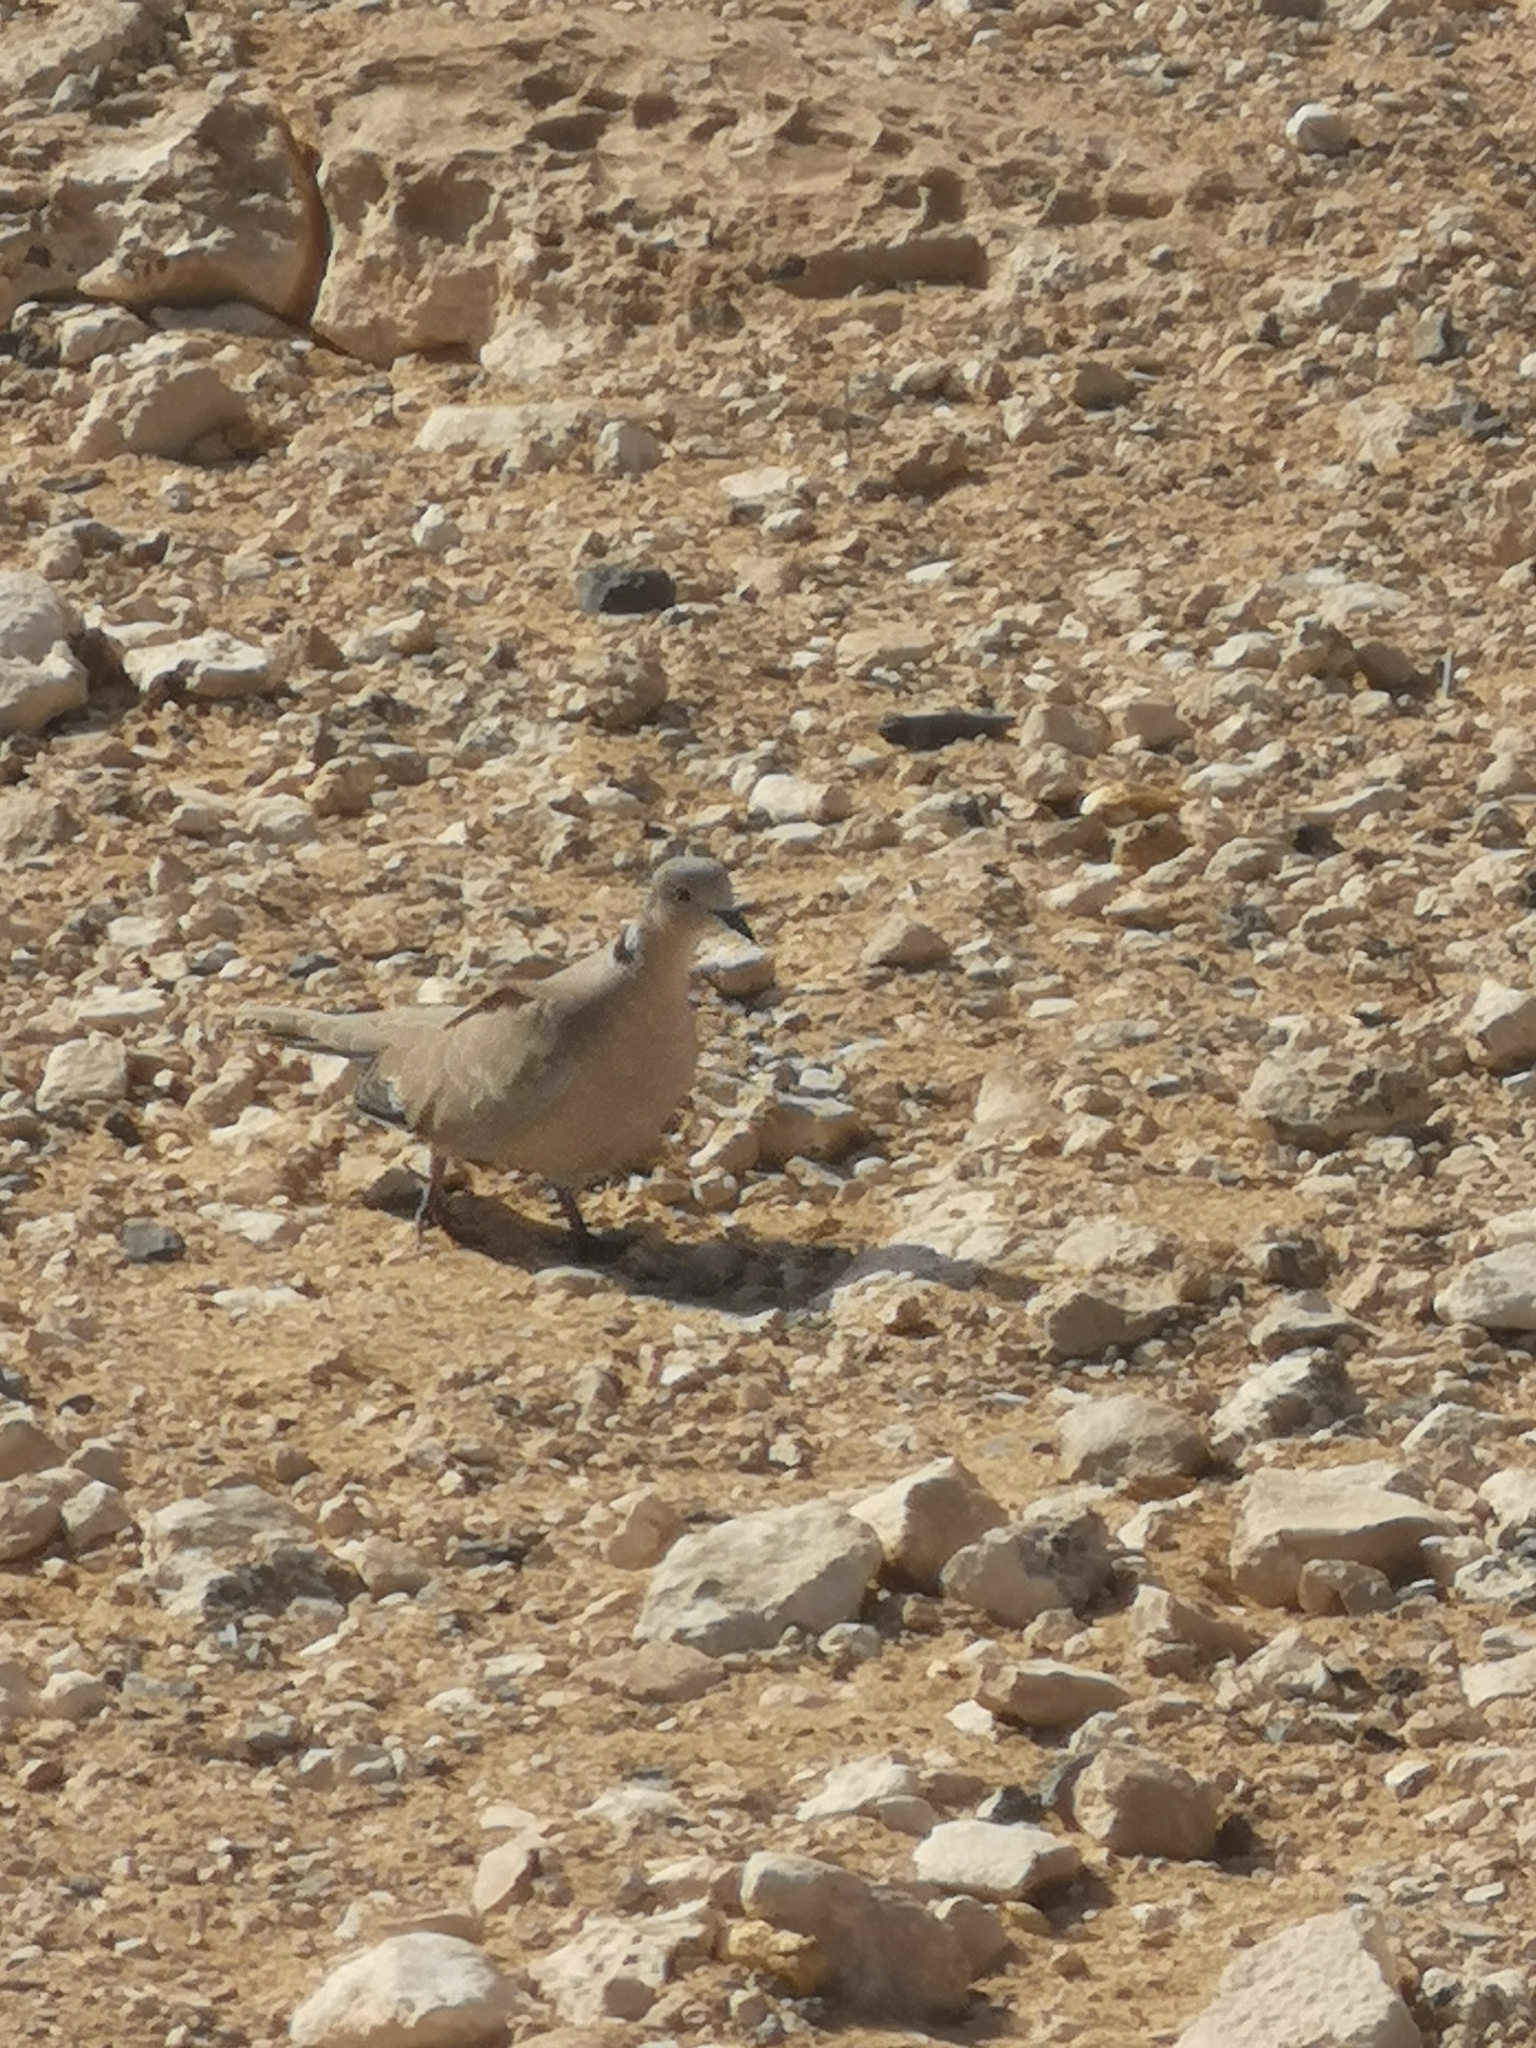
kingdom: Animalia
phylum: Chordata
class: Aves
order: Columbiformes
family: Columbidae
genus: Streptopelia
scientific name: Streptopelia decaocto
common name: Eurasian collared dove
